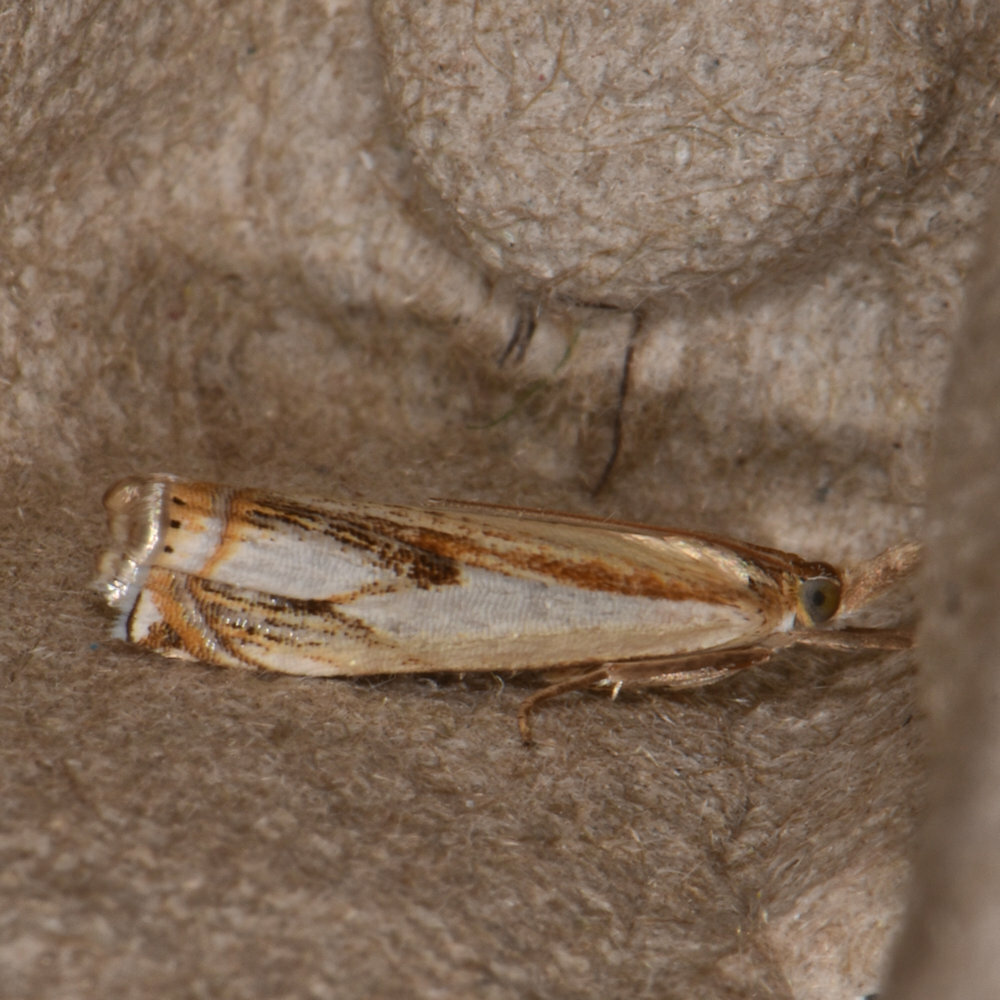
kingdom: Animalia
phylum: Arthropoda
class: Insecta
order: Lepidoptera
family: Crambidae
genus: Crambus
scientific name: Crambus agitatellus
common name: Double-banded grass-veneer
